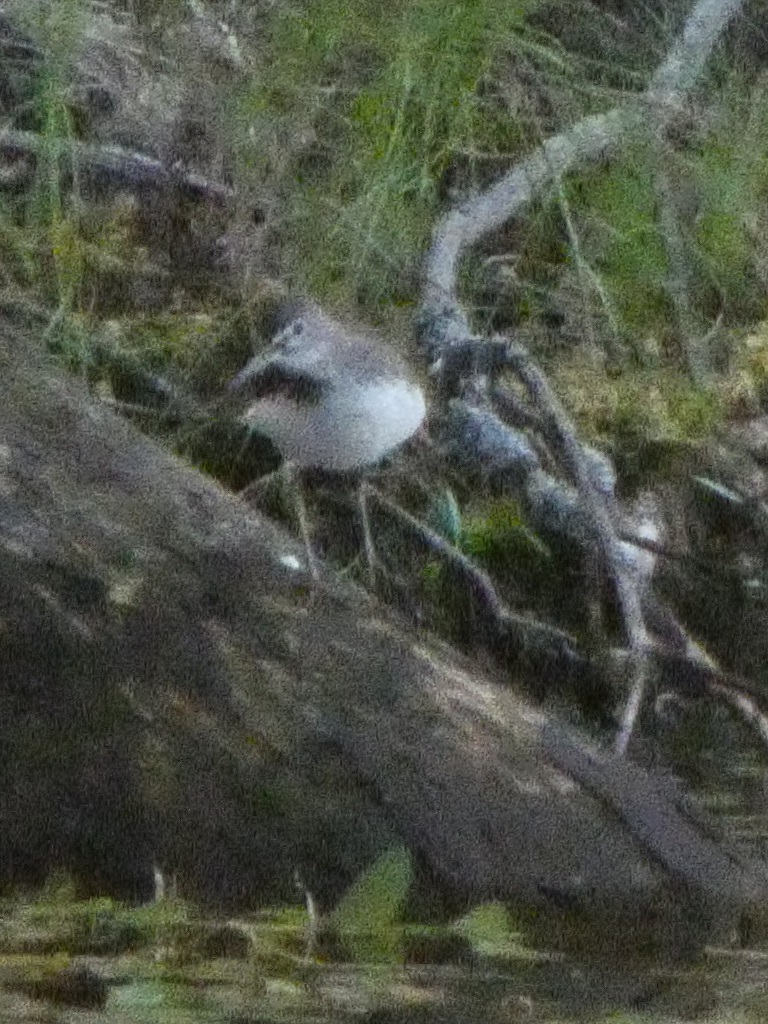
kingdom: Animalia
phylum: Chordata
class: Aves
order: Charadriiformes
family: Scolopacidae
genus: Tringa
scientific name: Tringa ochropus
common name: Green sandpiper
